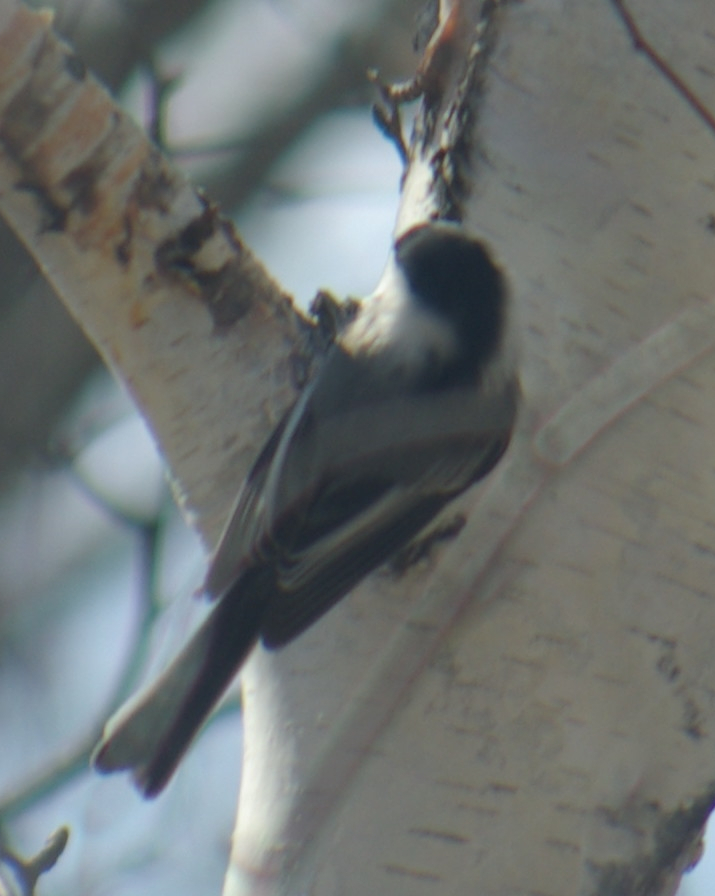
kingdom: Animalia
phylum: Chordata
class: Aves
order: Passeriformes
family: Paridae
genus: Poecile
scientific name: Poecile atricapillus
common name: Black-capped chickadee
